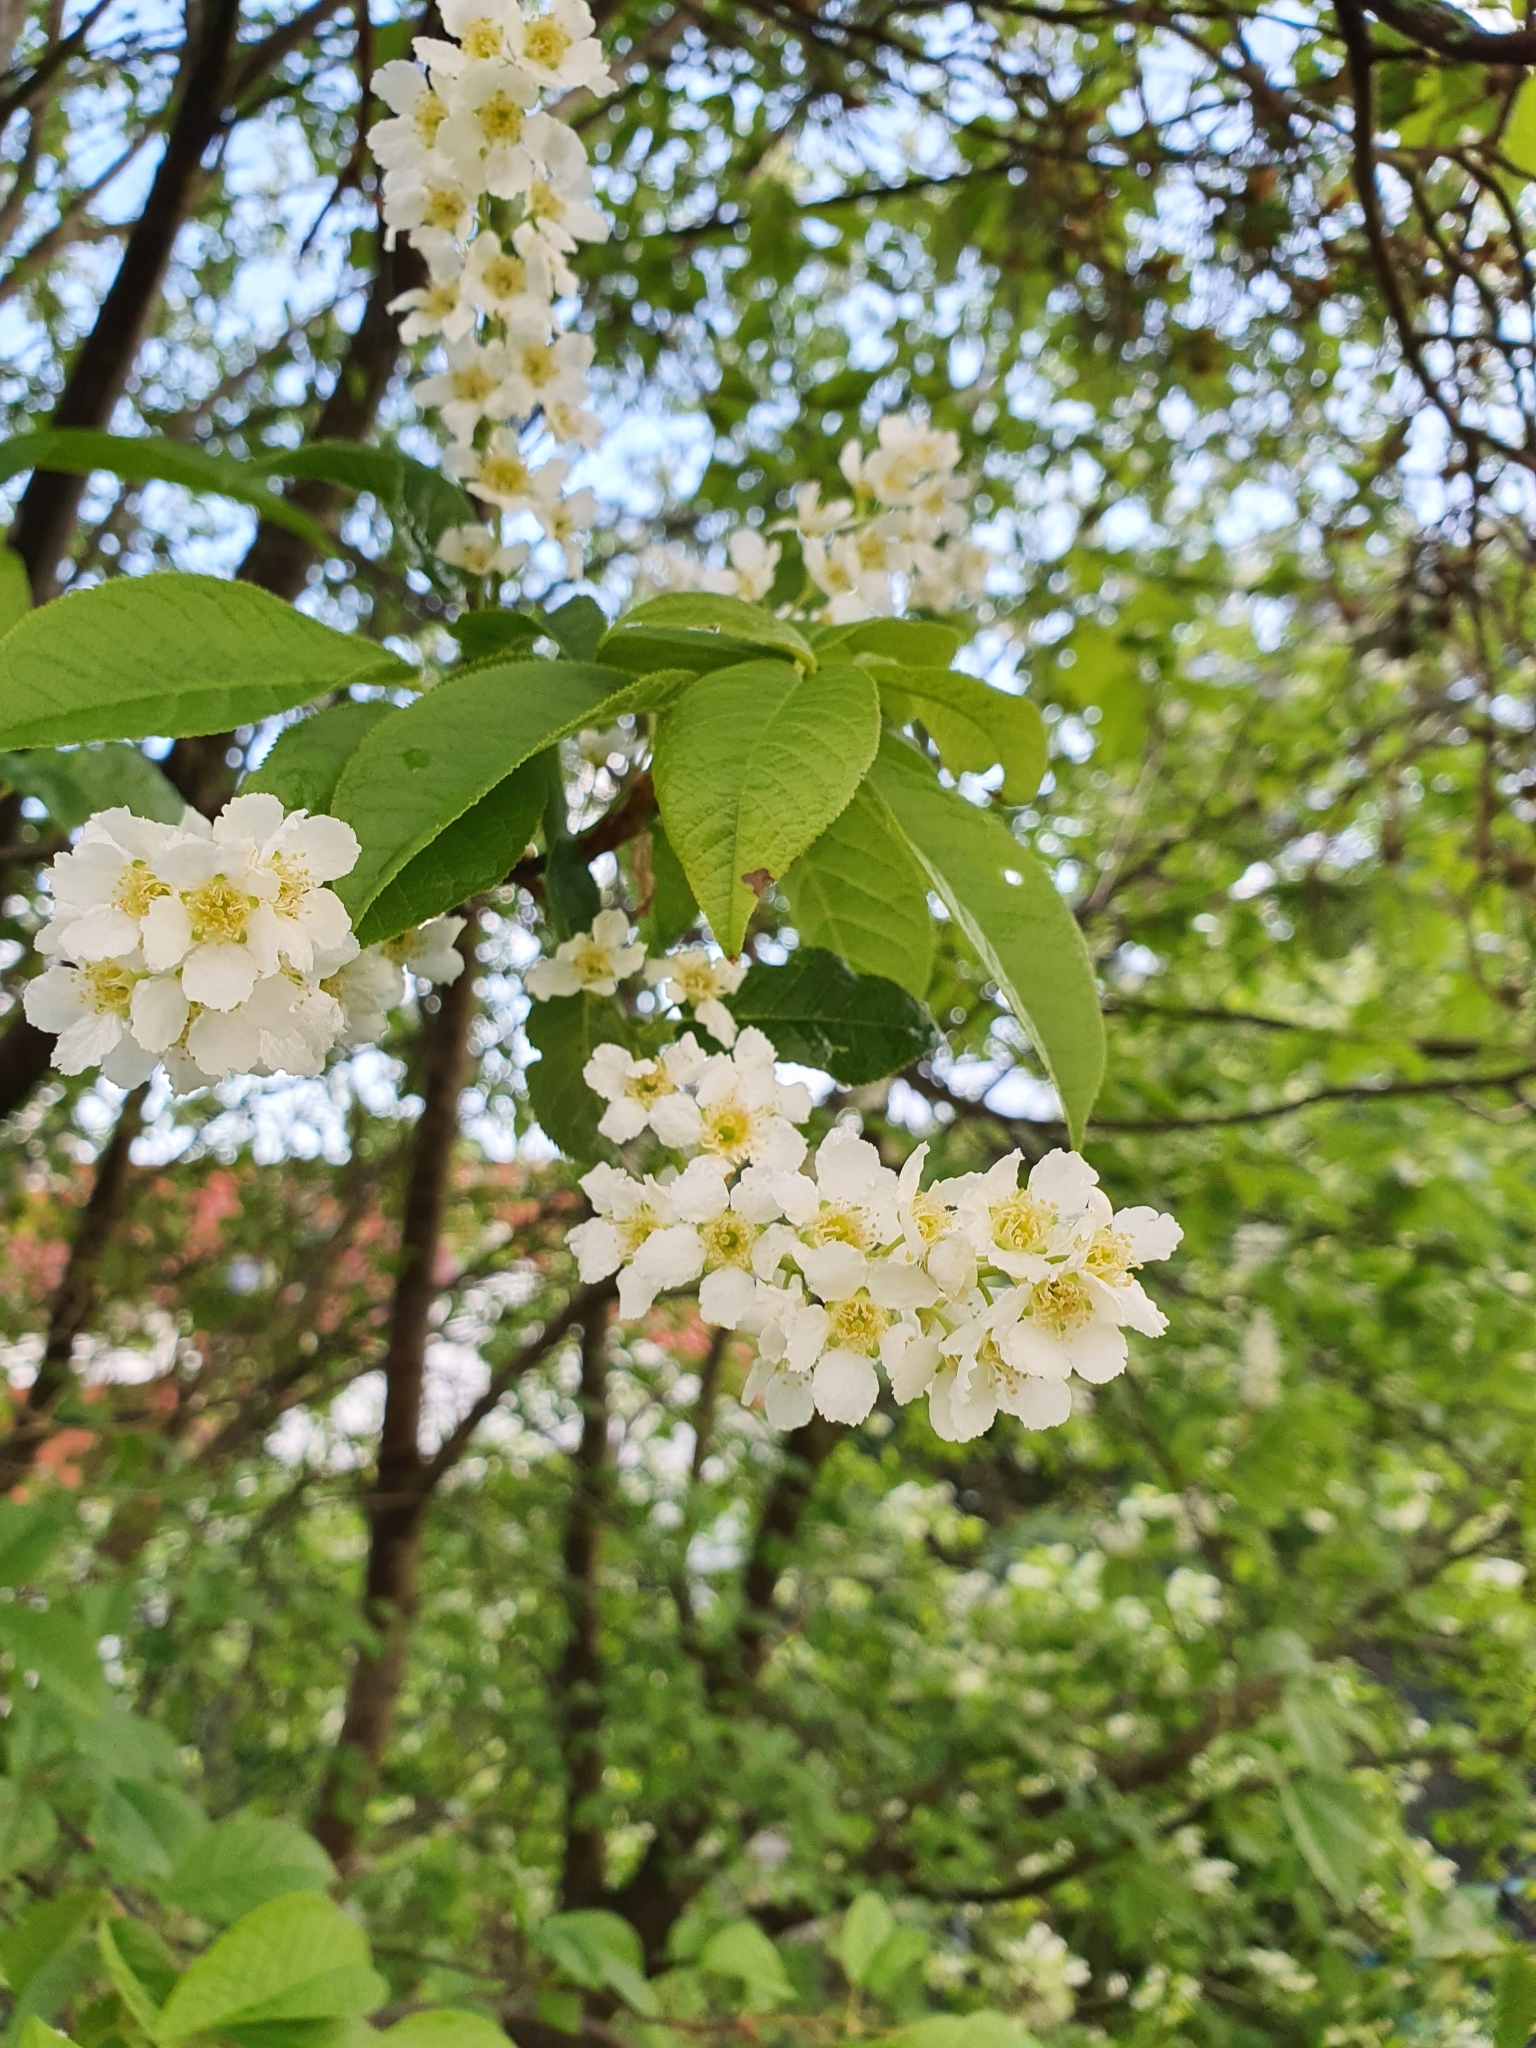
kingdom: Plantae
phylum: Tracheophyta
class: Magnoliopsida
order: Rosales
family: Rosaceae
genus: Prunus
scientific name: Prunus padus
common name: Bird cherry
